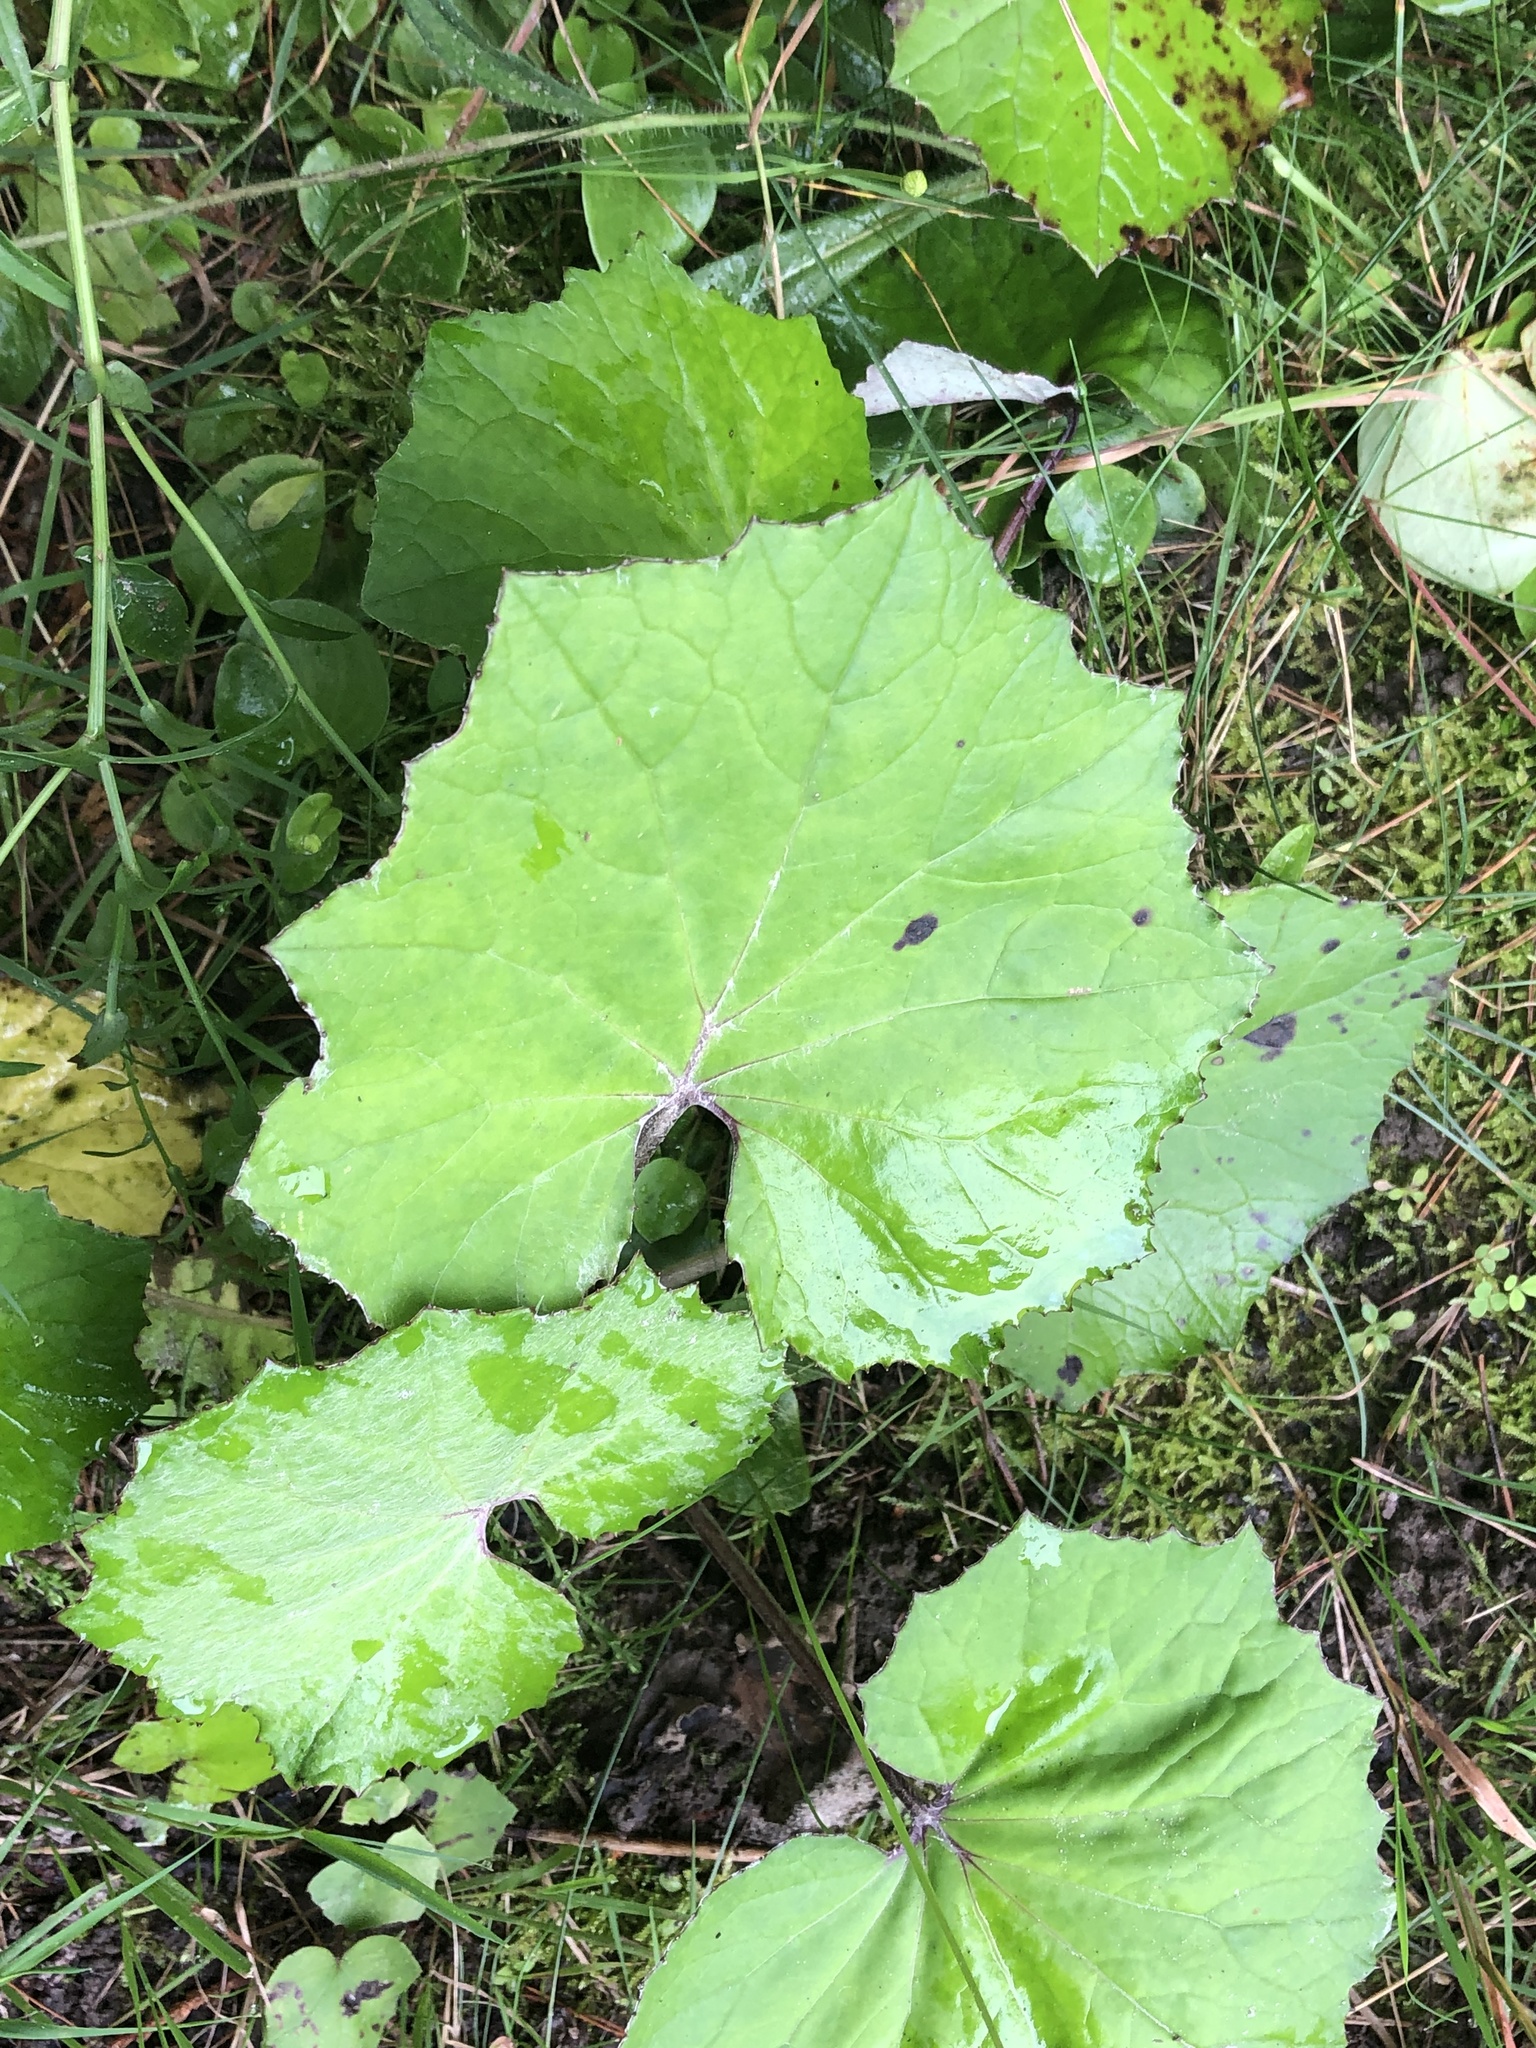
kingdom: Plantae
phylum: Tracheophyta
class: Magnoliopsida
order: Asterales
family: Asteraceae
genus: Tussilago
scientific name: Tussilago farfara
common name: Coltsfoot
